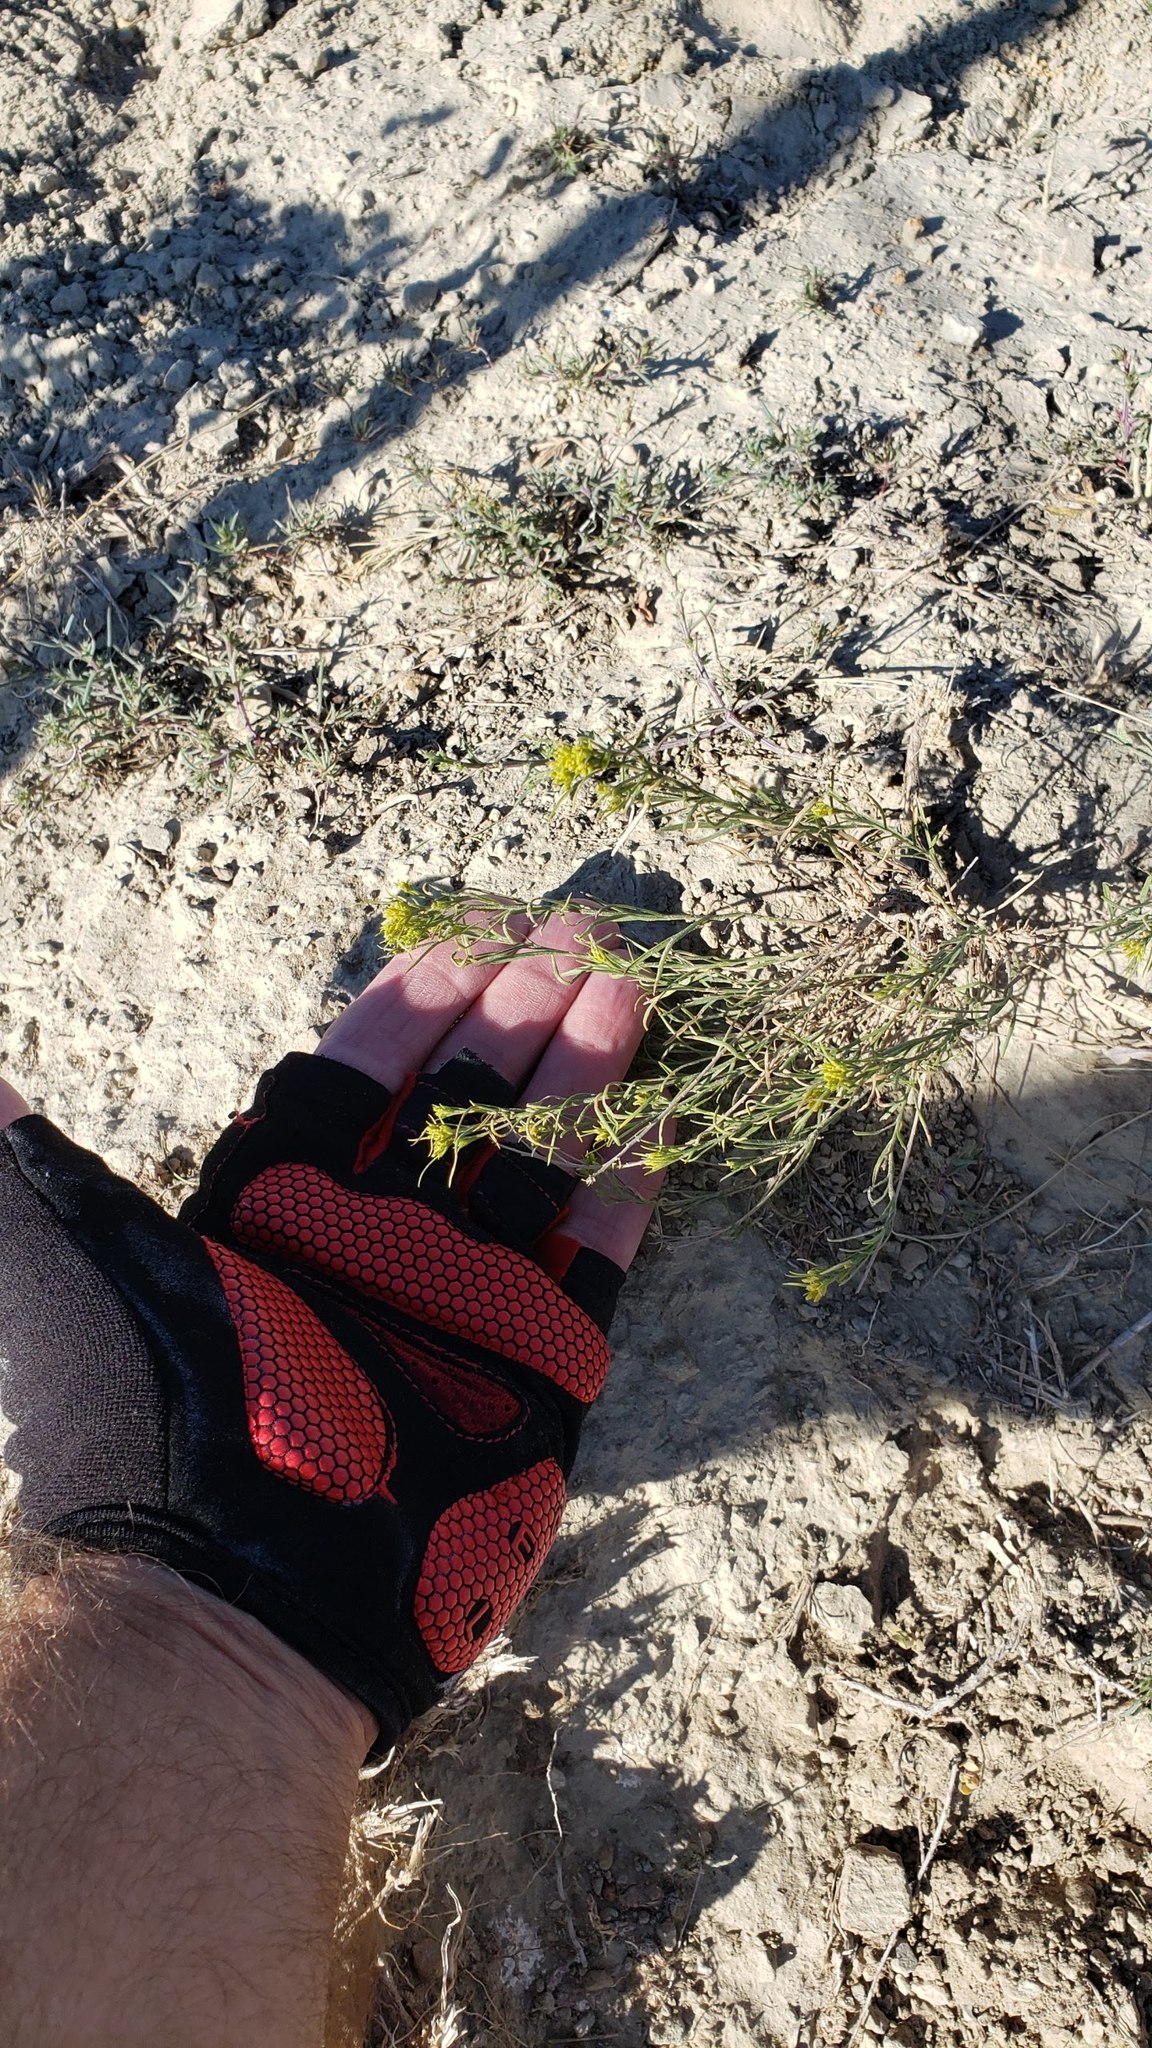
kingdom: Plantae
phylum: Tracheophyta
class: Magnoliopsida
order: Asterales
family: Asteraceae
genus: Gutierrezia
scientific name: Gutierrezia sarothrae
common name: Broom snakeweed
